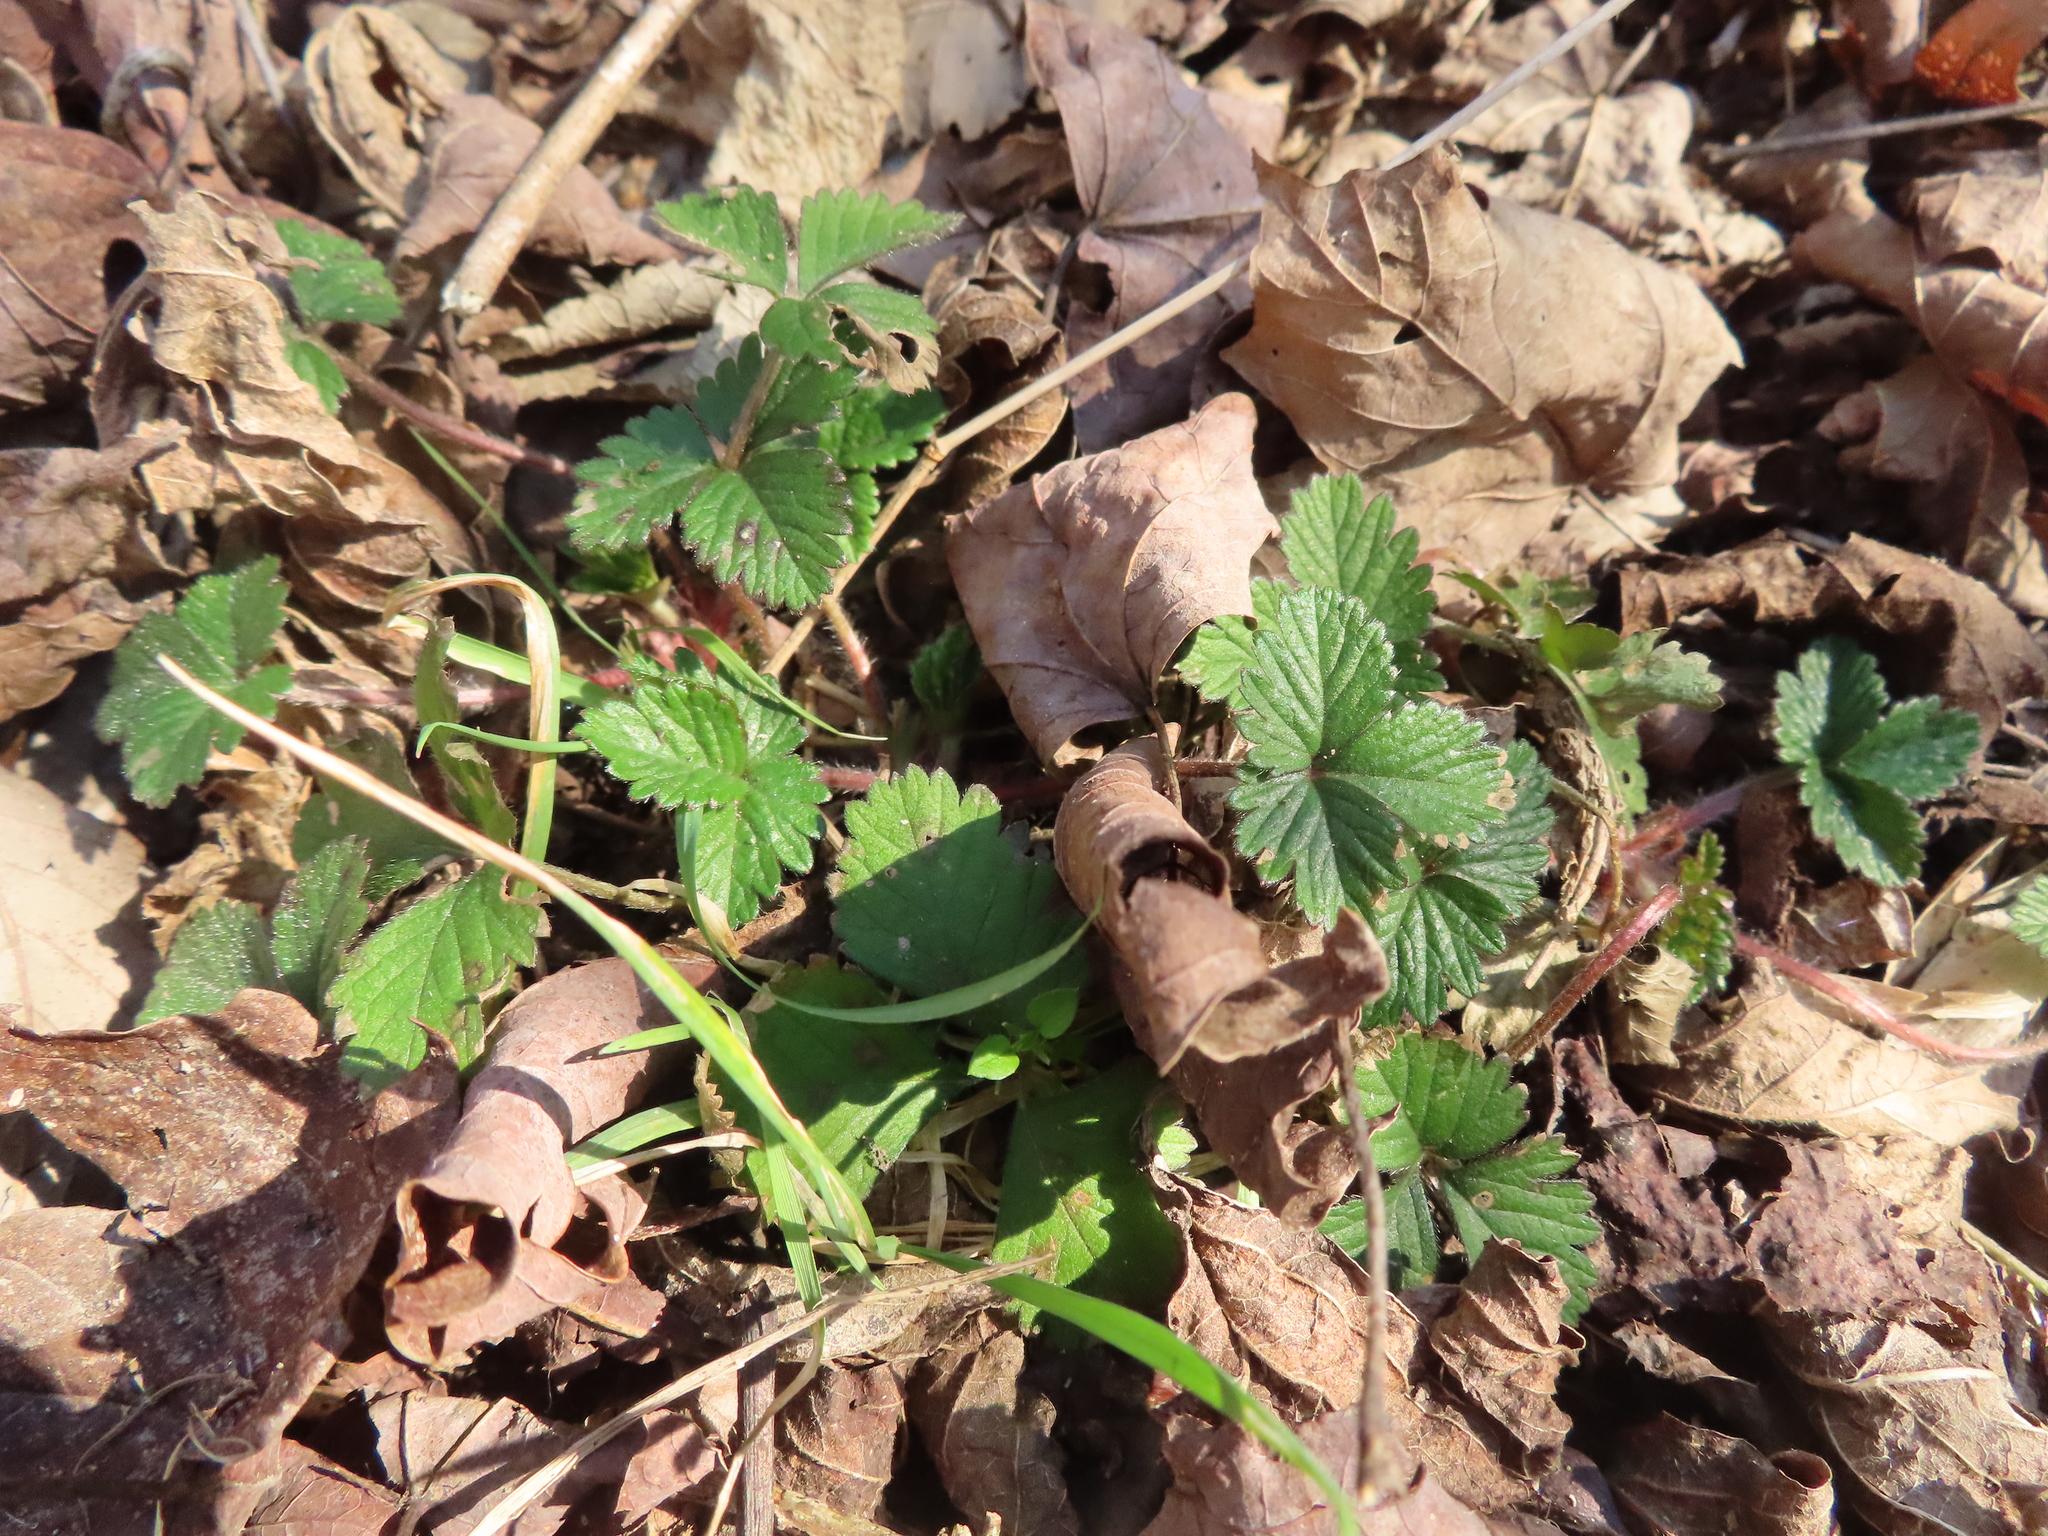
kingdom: Plantae
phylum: Tracheophyta
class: Magnoliopsida
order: Rosales
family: Rosaceae
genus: Potentilla
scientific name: Potentilla indica
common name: Yellow-flowered strawberry
